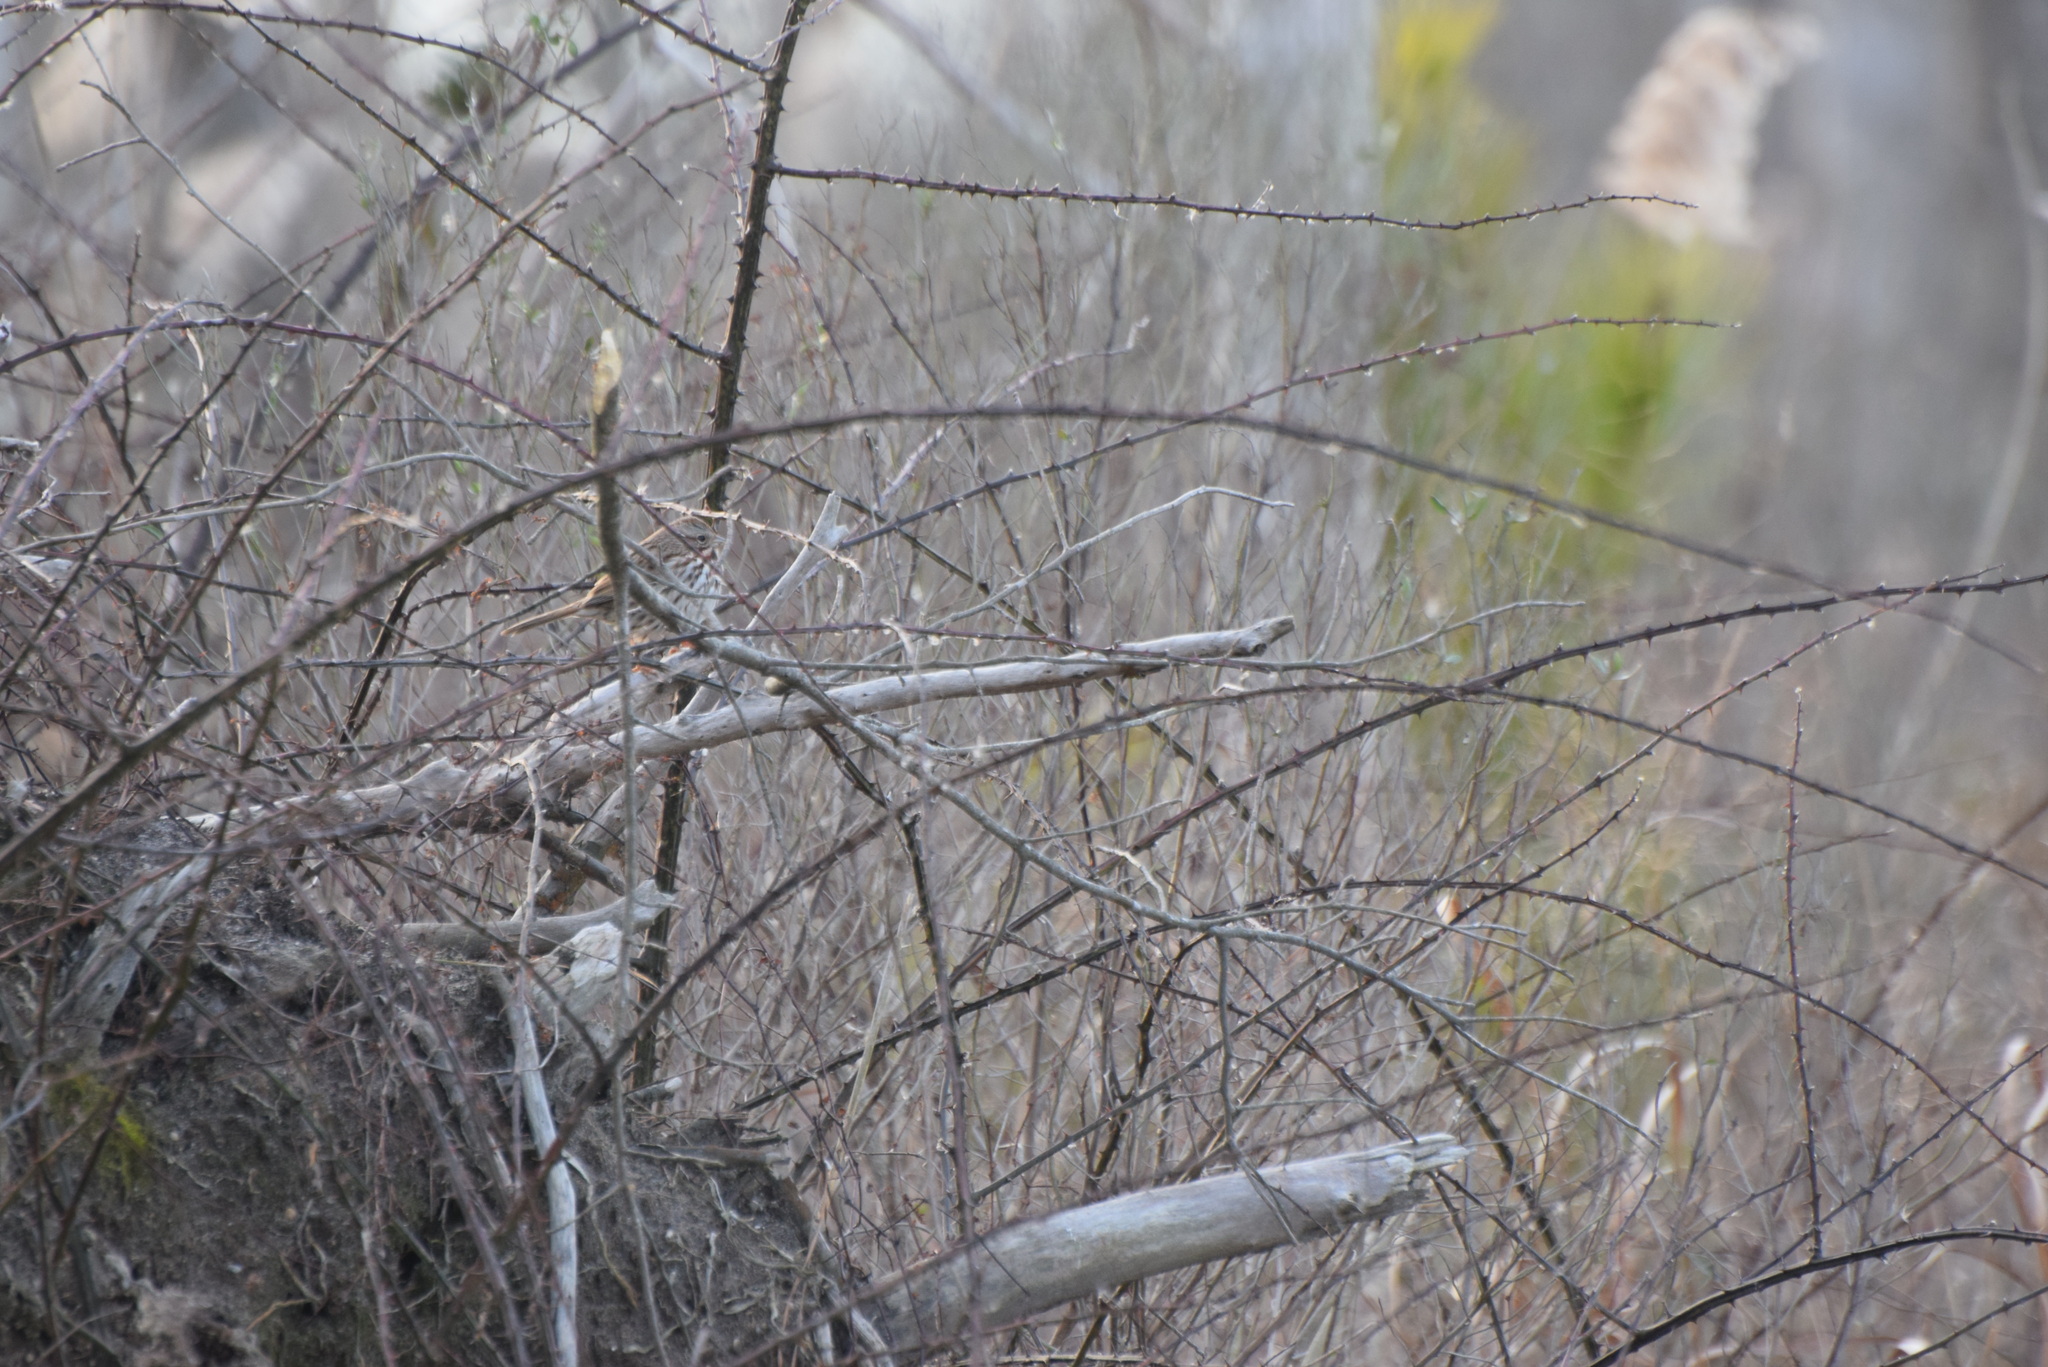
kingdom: Animalia
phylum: Chordata
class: Aves
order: Passeriformes
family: Passerellidae
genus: Melospiza
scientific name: Melospiza melodia
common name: Song sparrow
